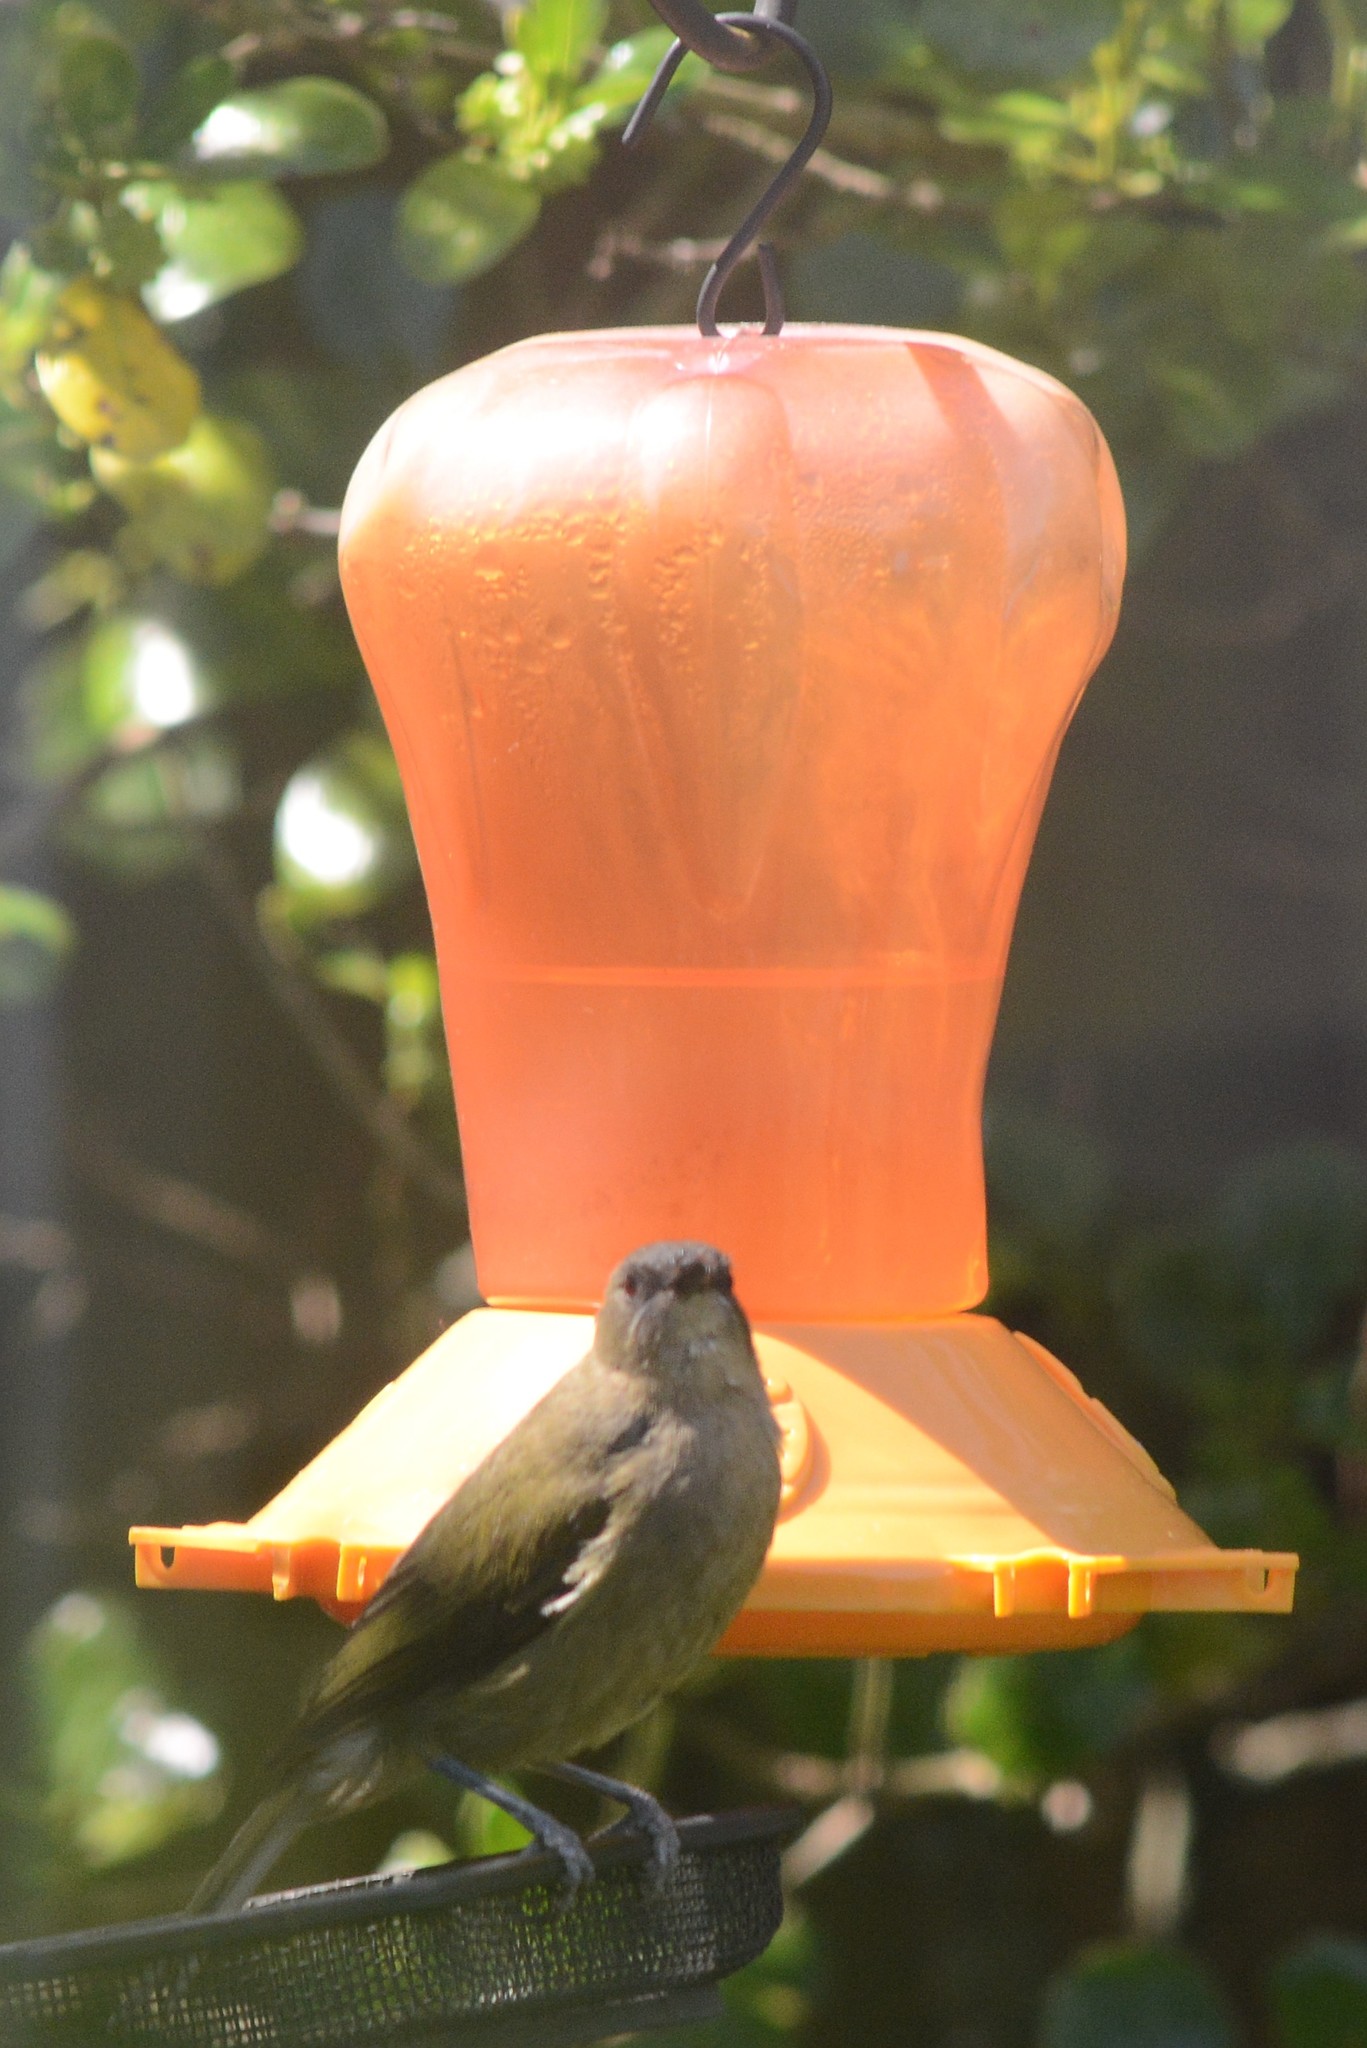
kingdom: Animalia
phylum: Chordata
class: Aves
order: Passeriformes
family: Meliphagidae
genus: Anthornis
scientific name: Anthornis melanura
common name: New zealand bellbird
